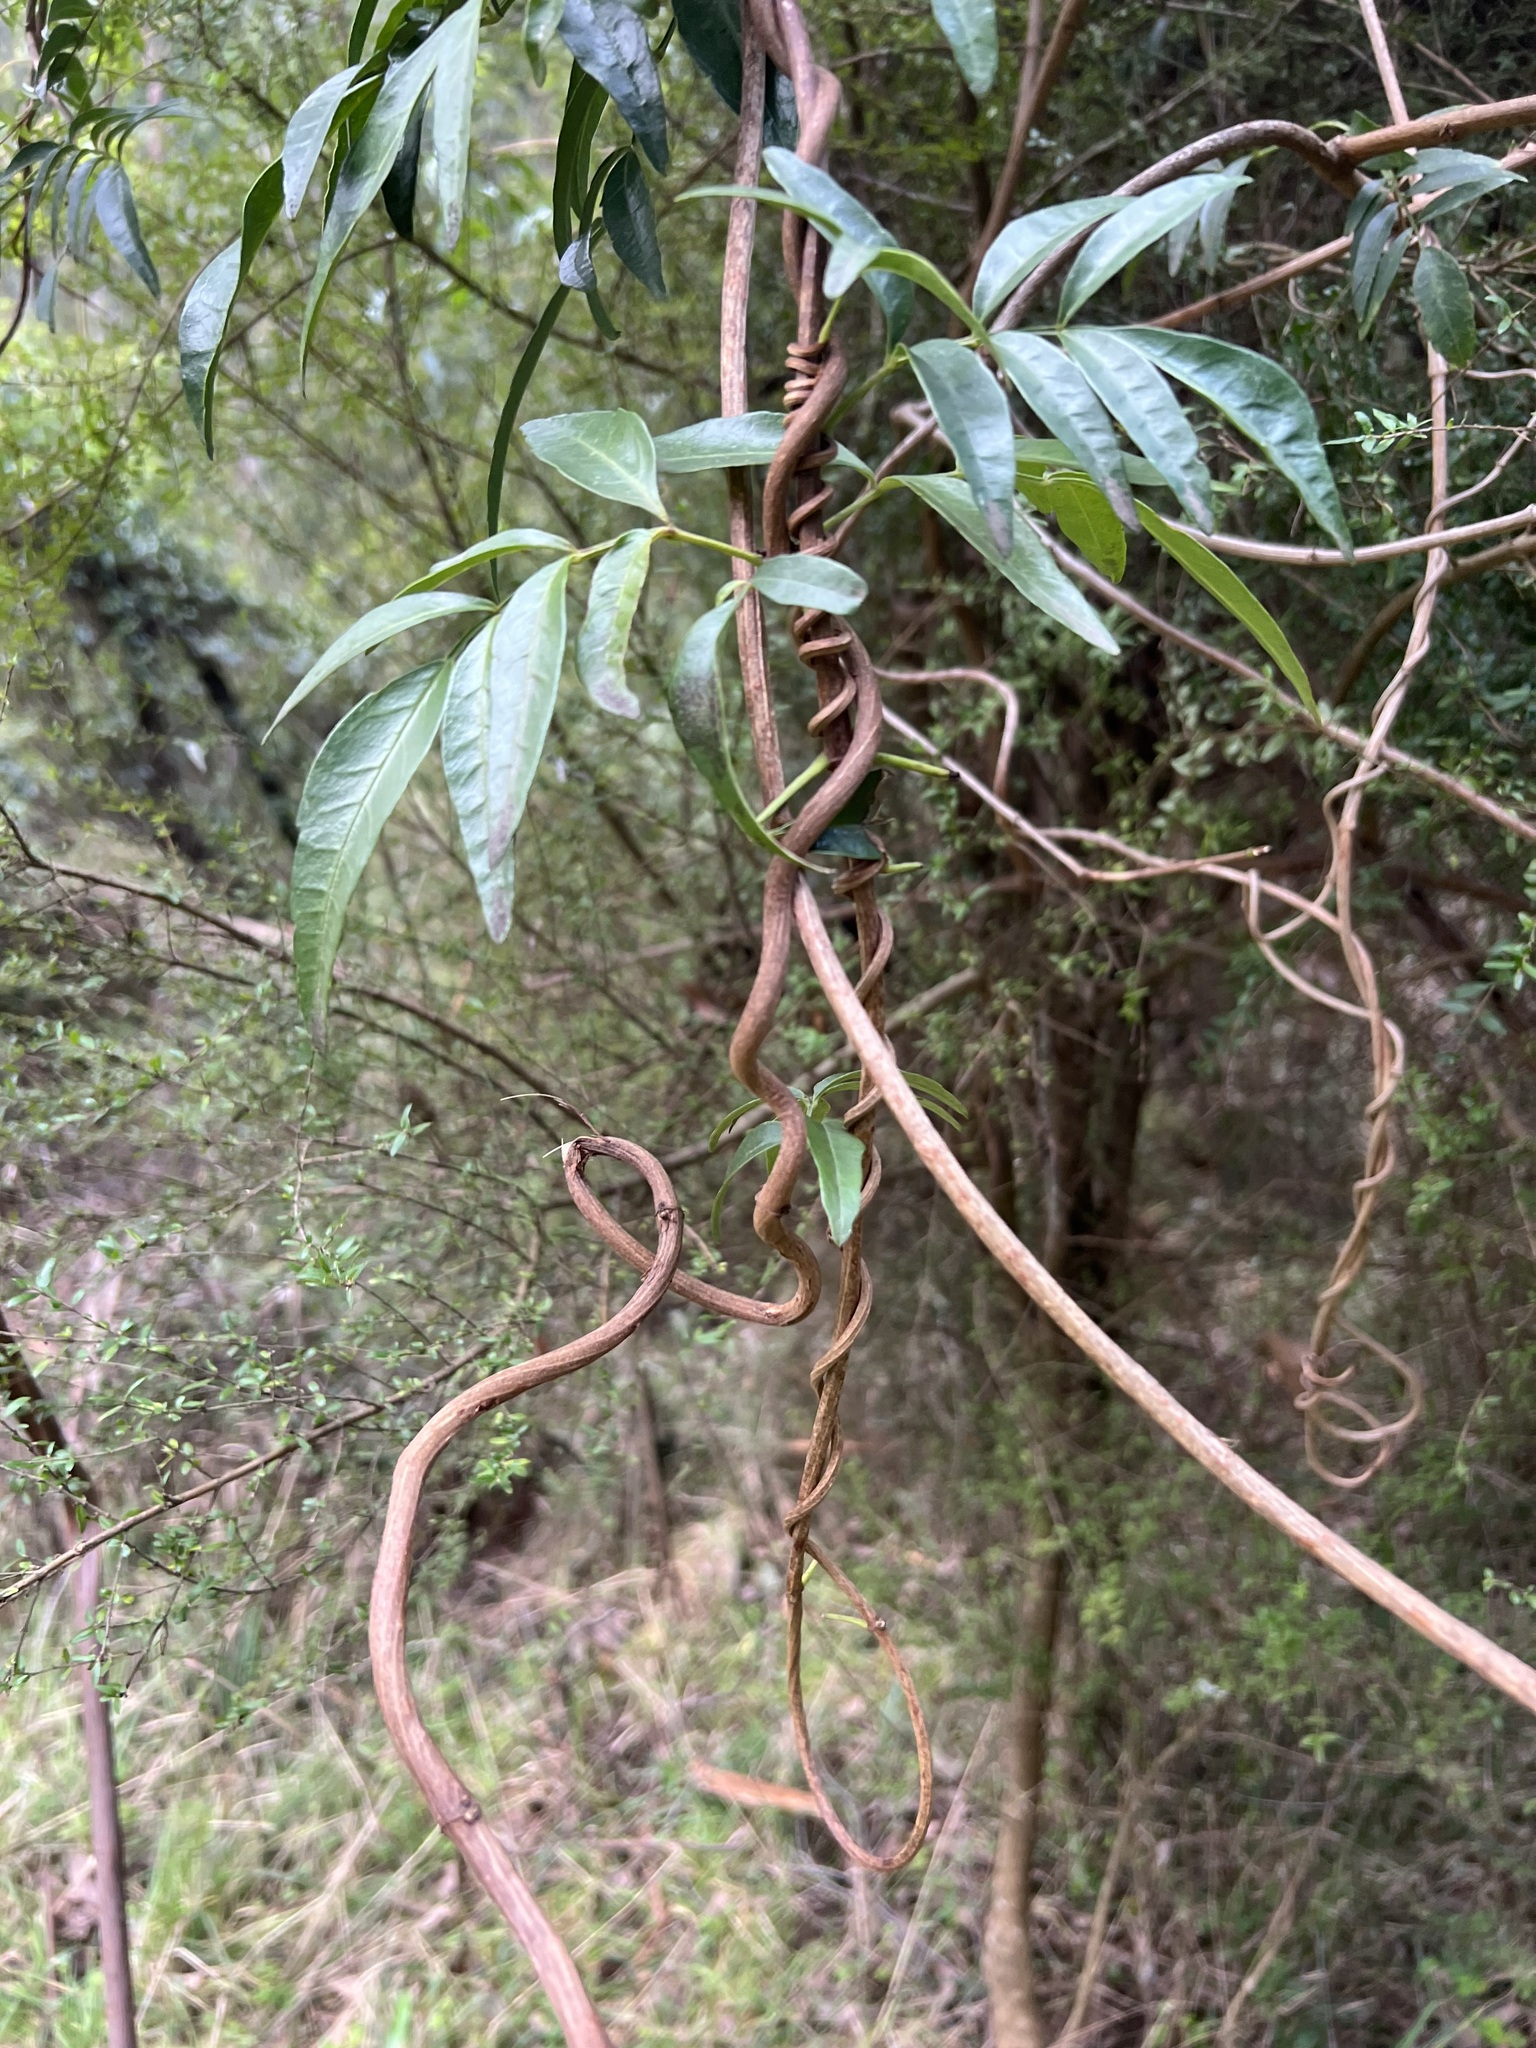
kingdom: Plantae
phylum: Tracheophyta
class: Magnoliopsida
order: Lamiales
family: Bignoniaceae
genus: Pandorea
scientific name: Pandorea pandorana
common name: Wonga-wonga-vine
